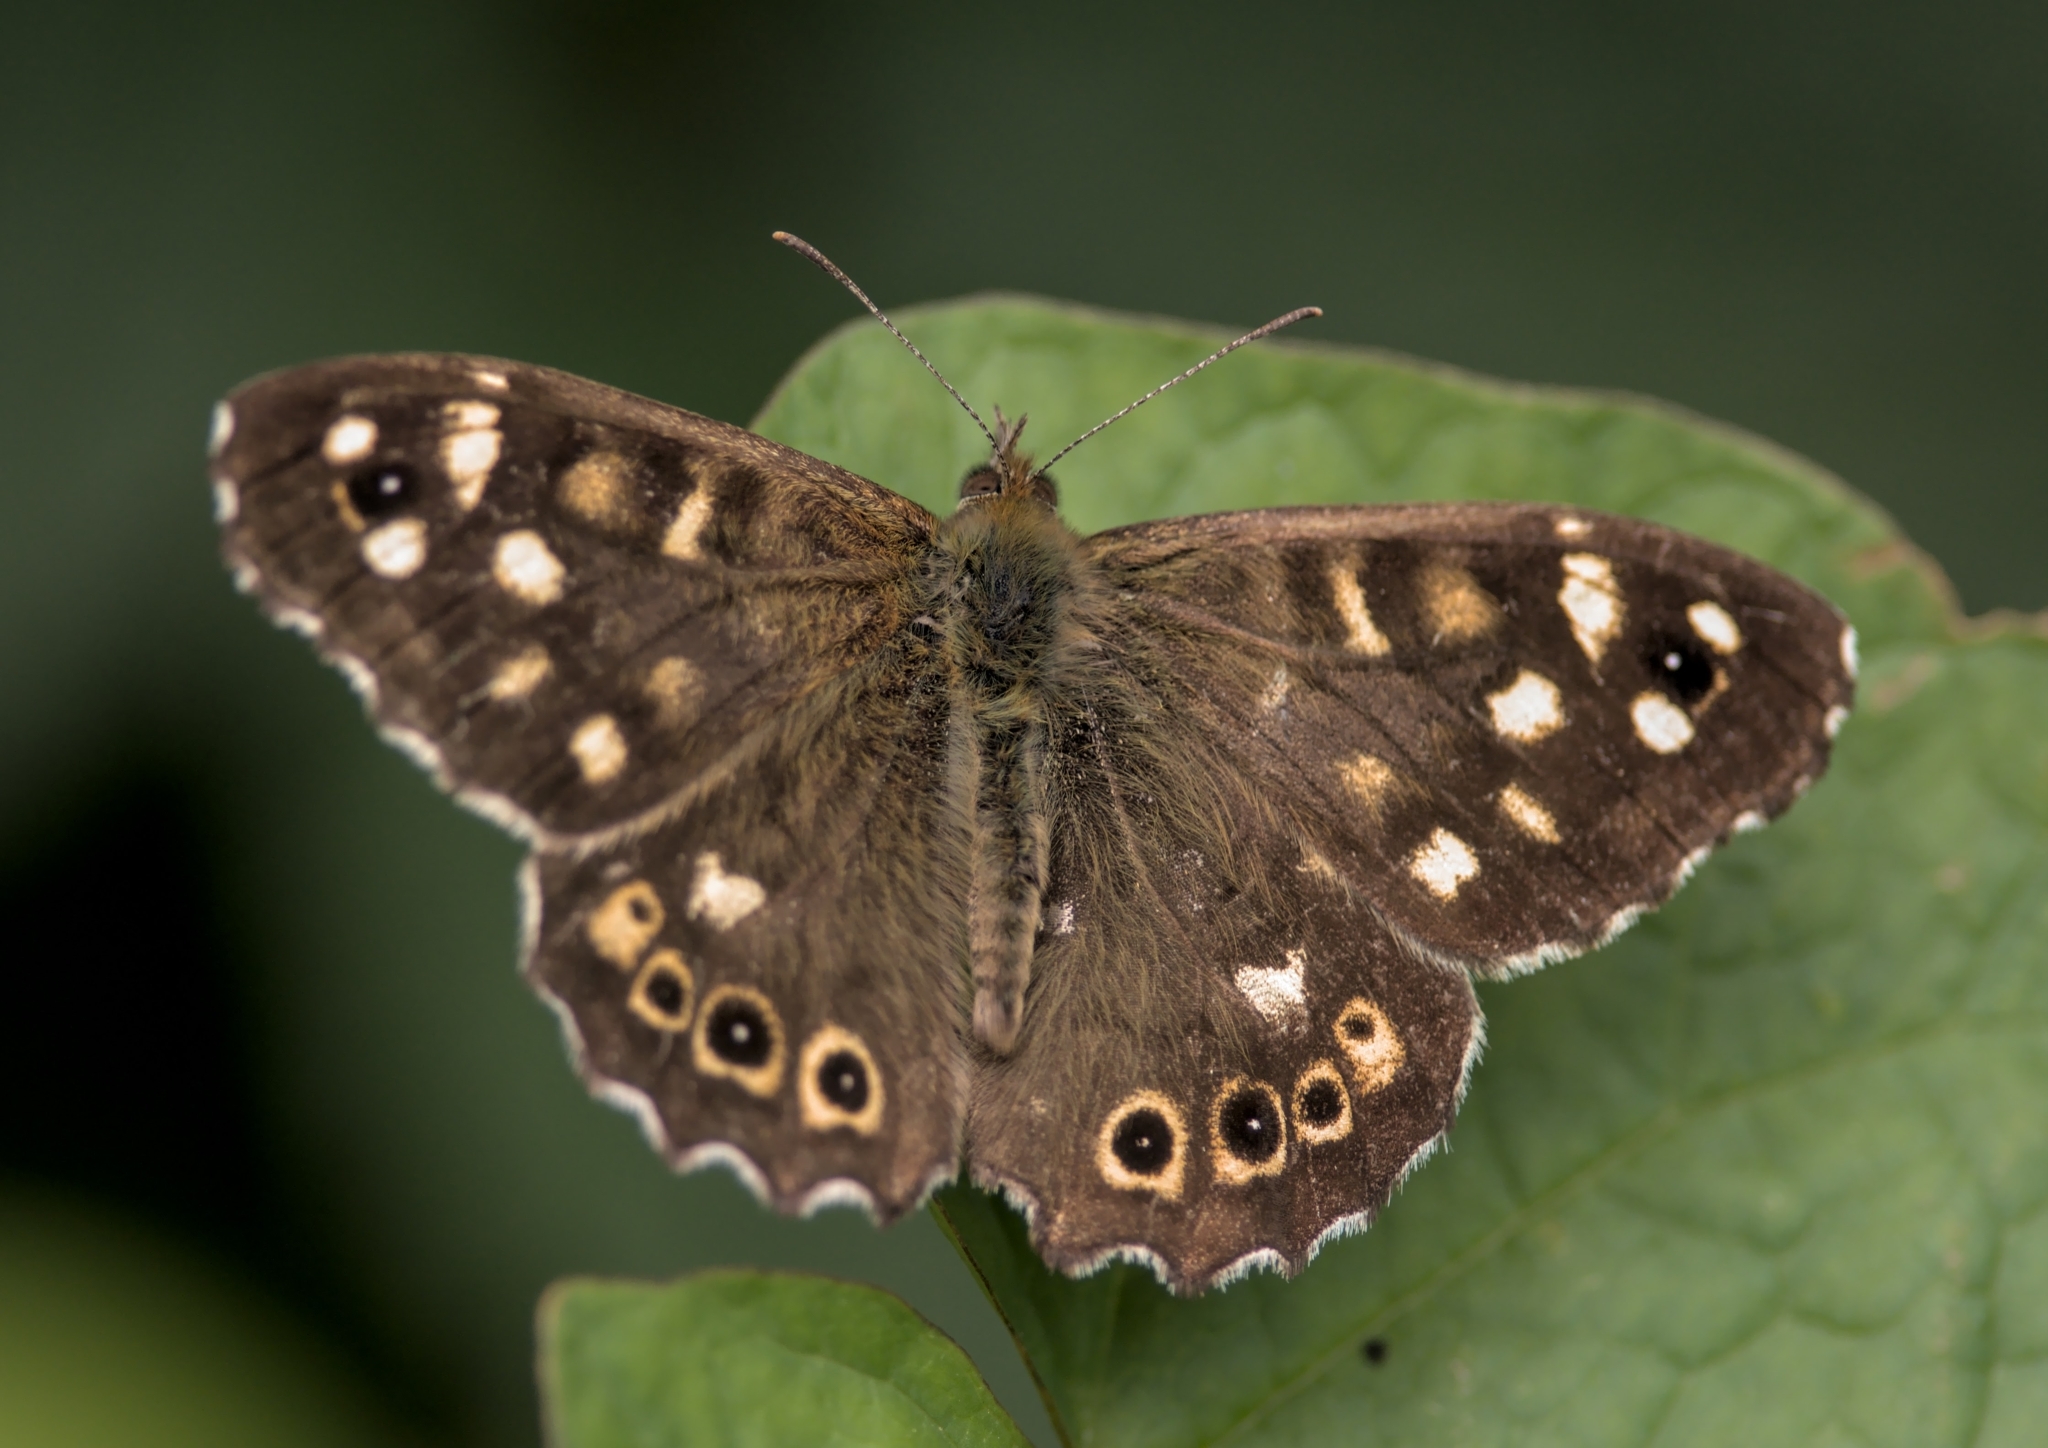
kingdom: Animalia
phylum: Arthropoda
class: Insecta
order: Lepidoptera
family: Nymphalidae
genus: Pararge
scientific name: Pararge aegeria
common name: Speckled wood
